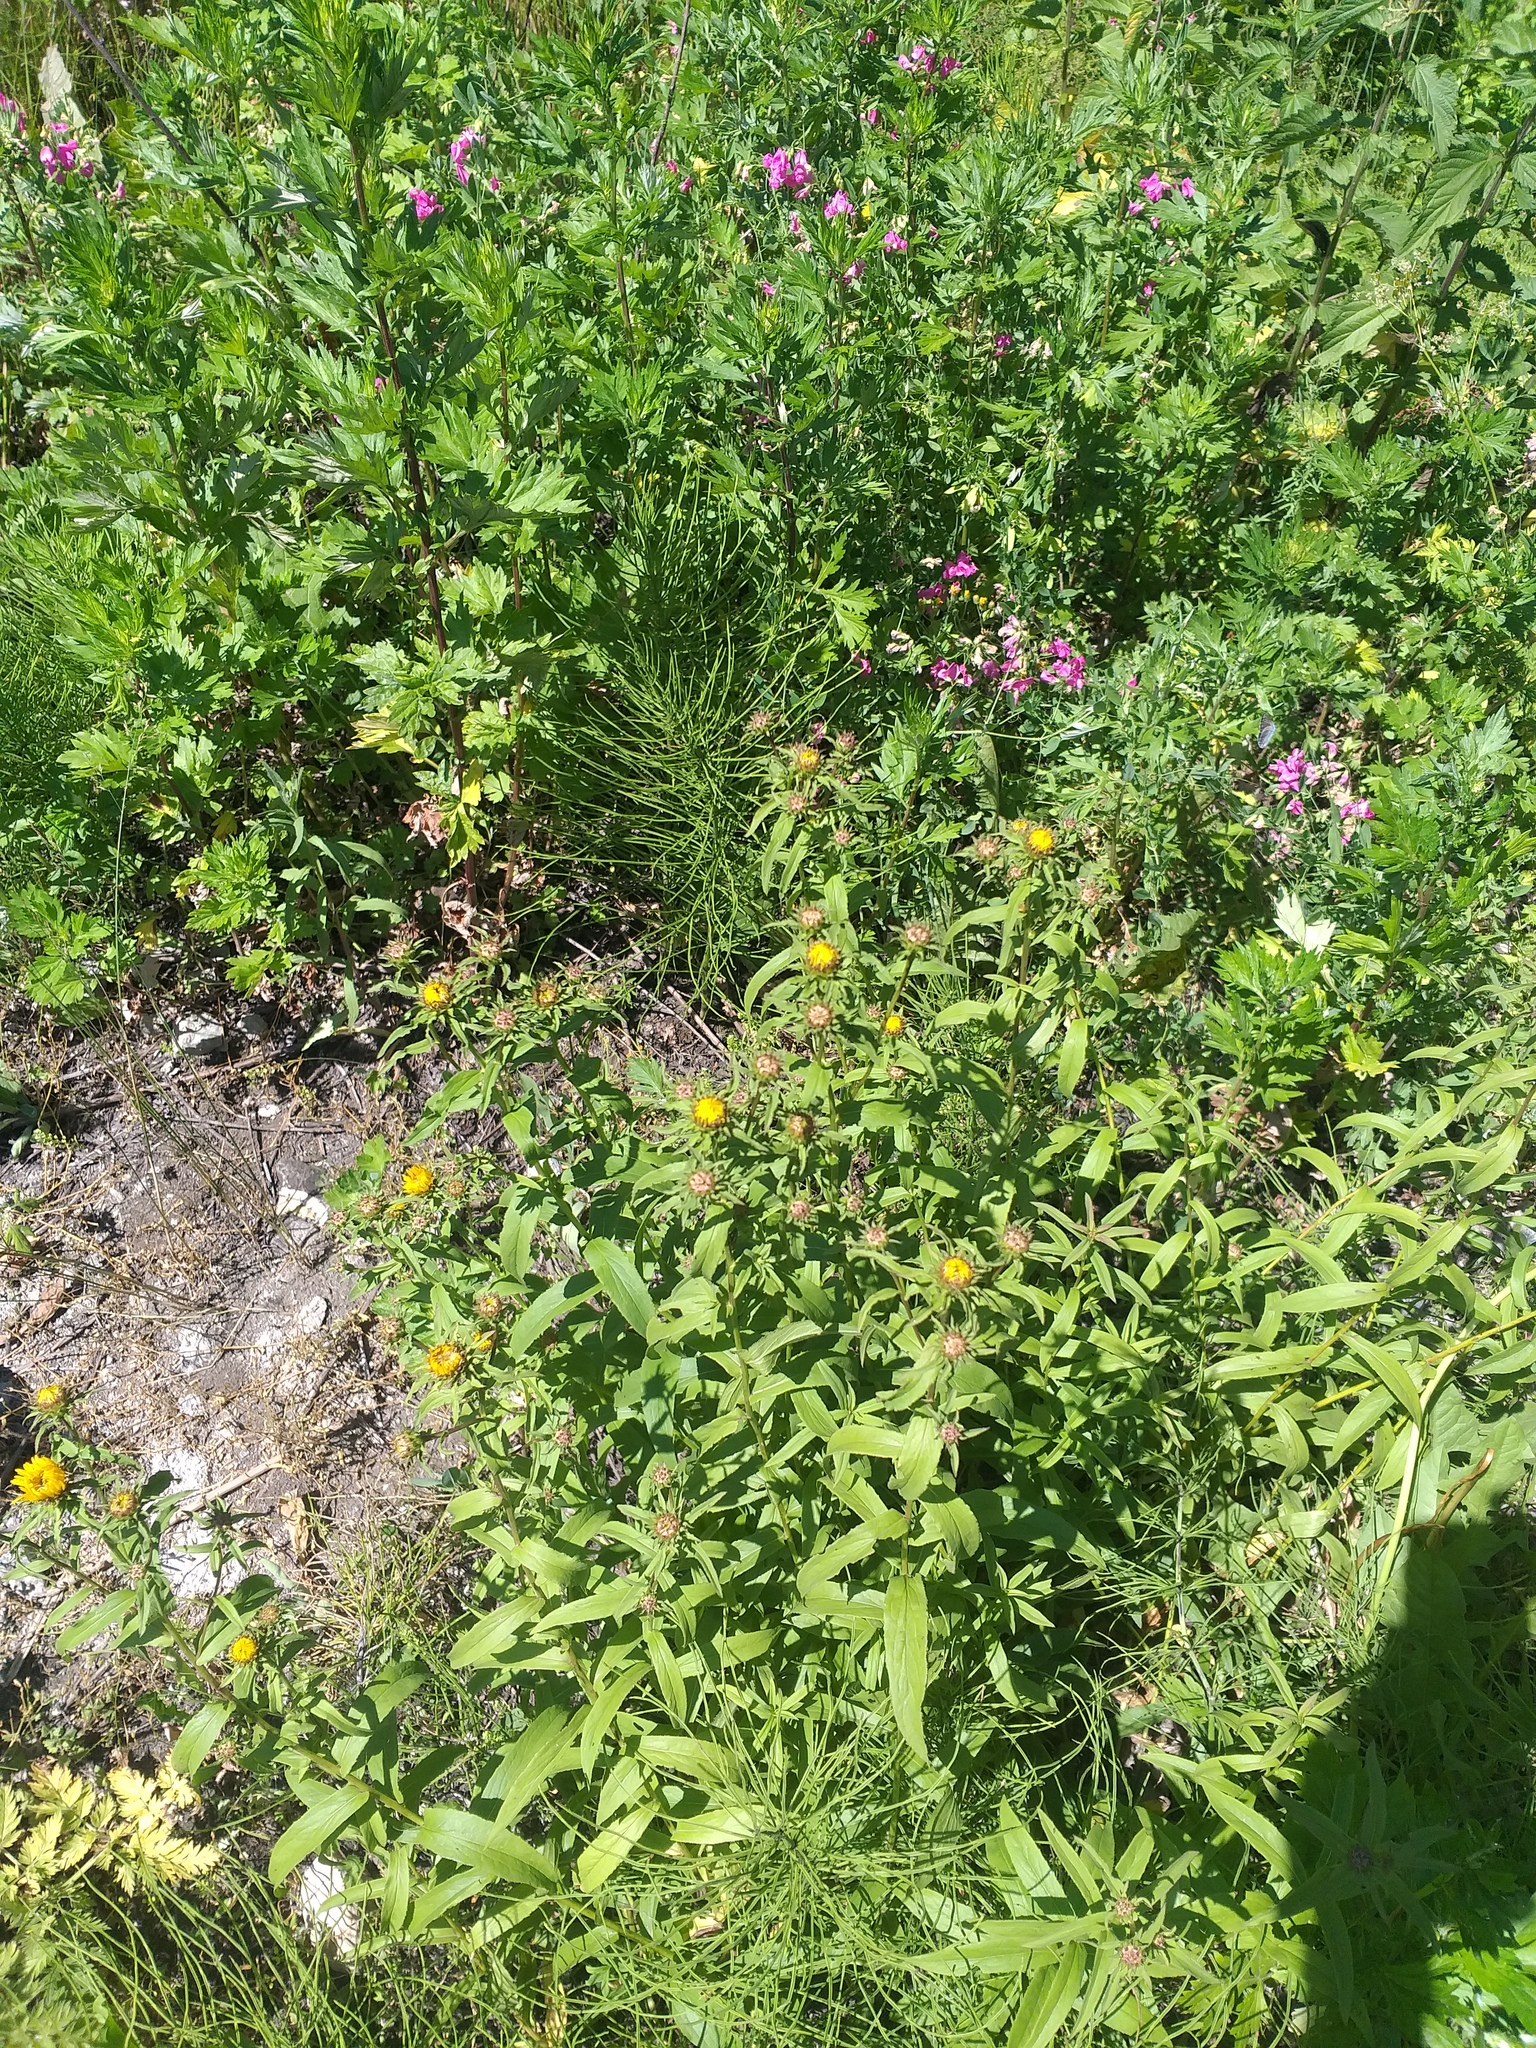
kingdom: Plantae
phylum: Tracheophyta
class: Magnoliopsida
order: Asterales
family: Asteraceae
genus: Pentanema
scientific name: Pentanema salicinum
